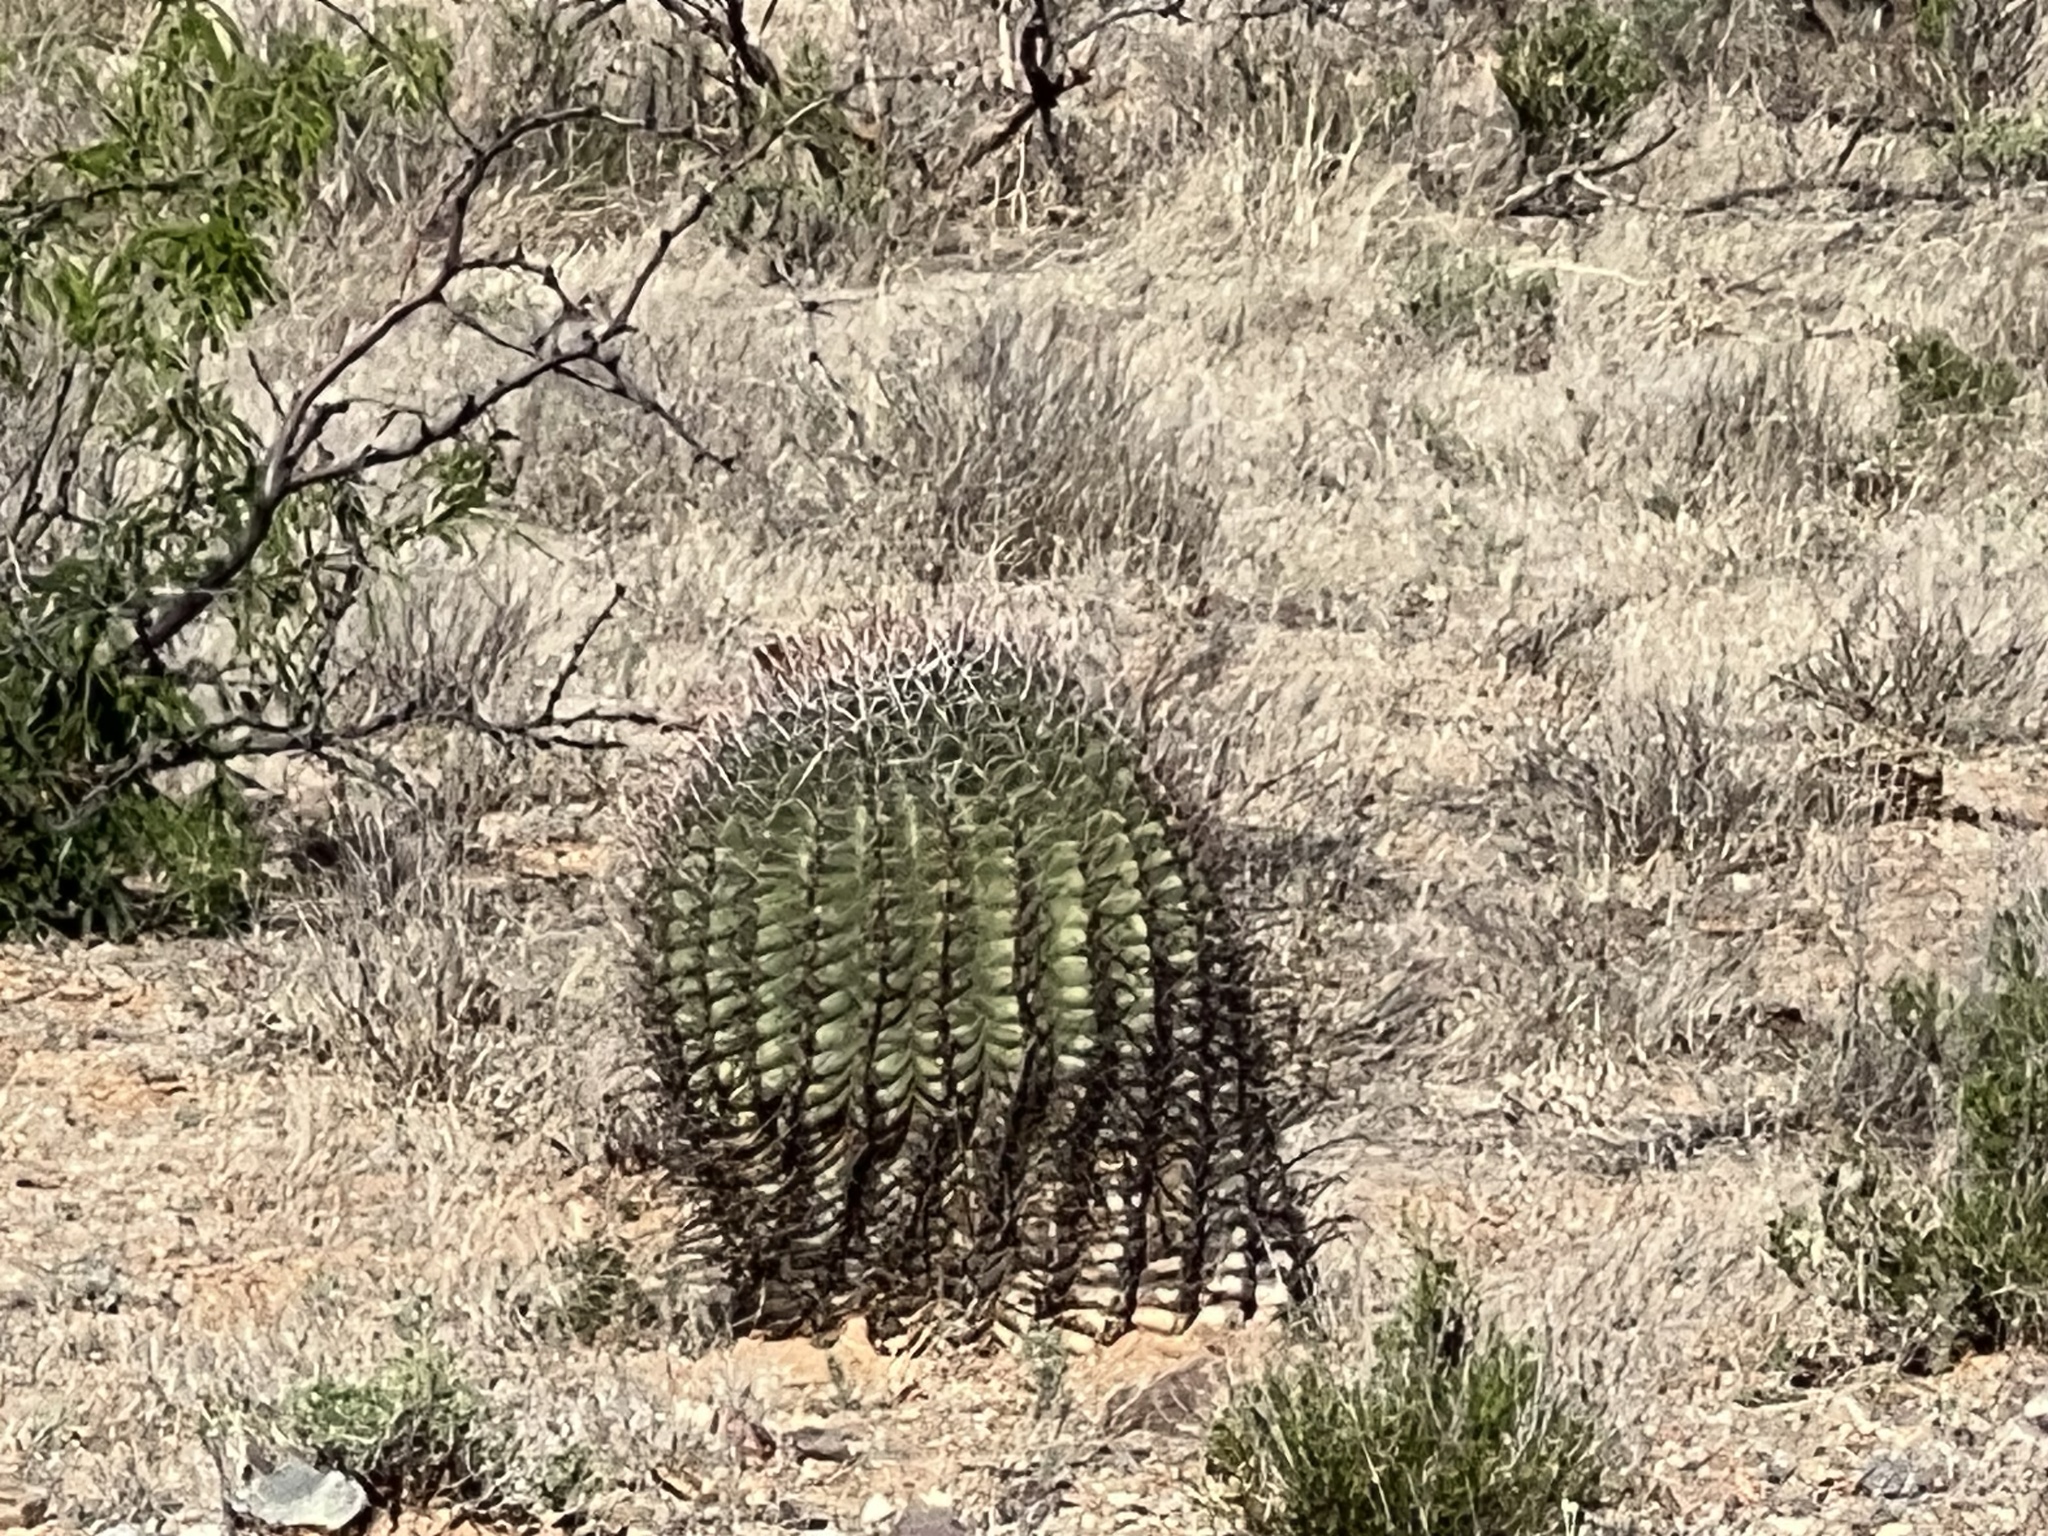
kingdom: Plantae
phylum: Tracheophyta
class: Magnoliopsida
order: Caryophyllales
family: Cactaceae
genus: Ferocactus
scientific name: Ferocactus wislizeni
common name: Candy barrel cactus
